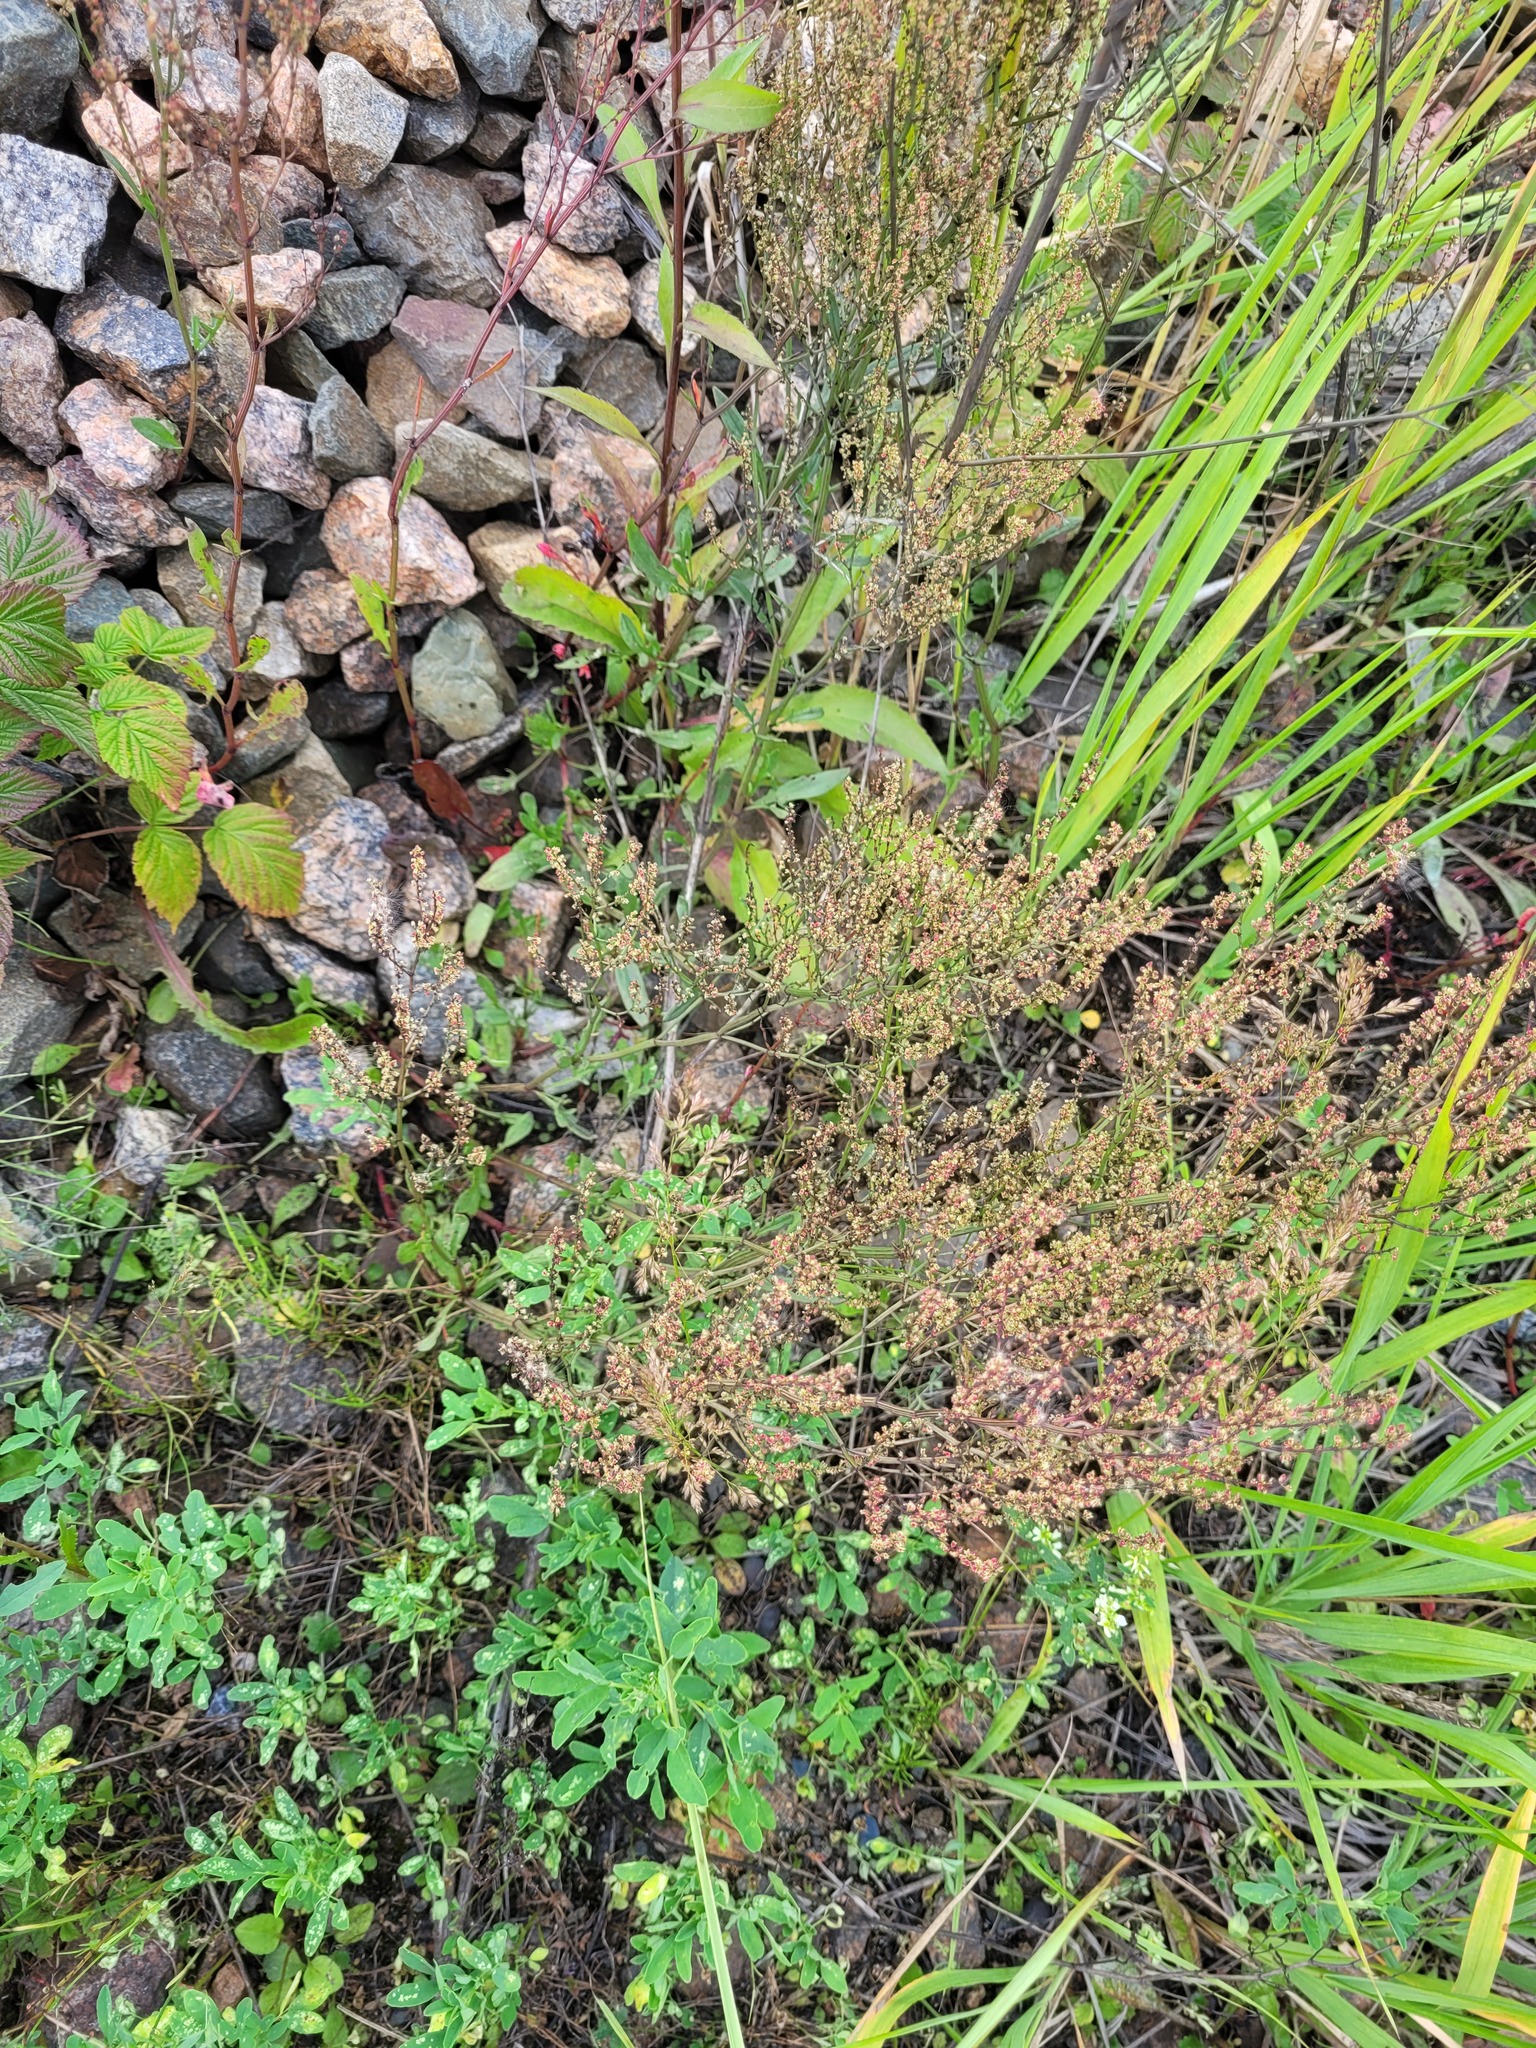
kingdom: Plantae
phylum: Tracheophyta
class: Magnoliopsida
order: Caryophyllales
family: Polygonaceae
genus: Rumex
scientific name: Rumex acetosella
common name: Common sheep sorrel
